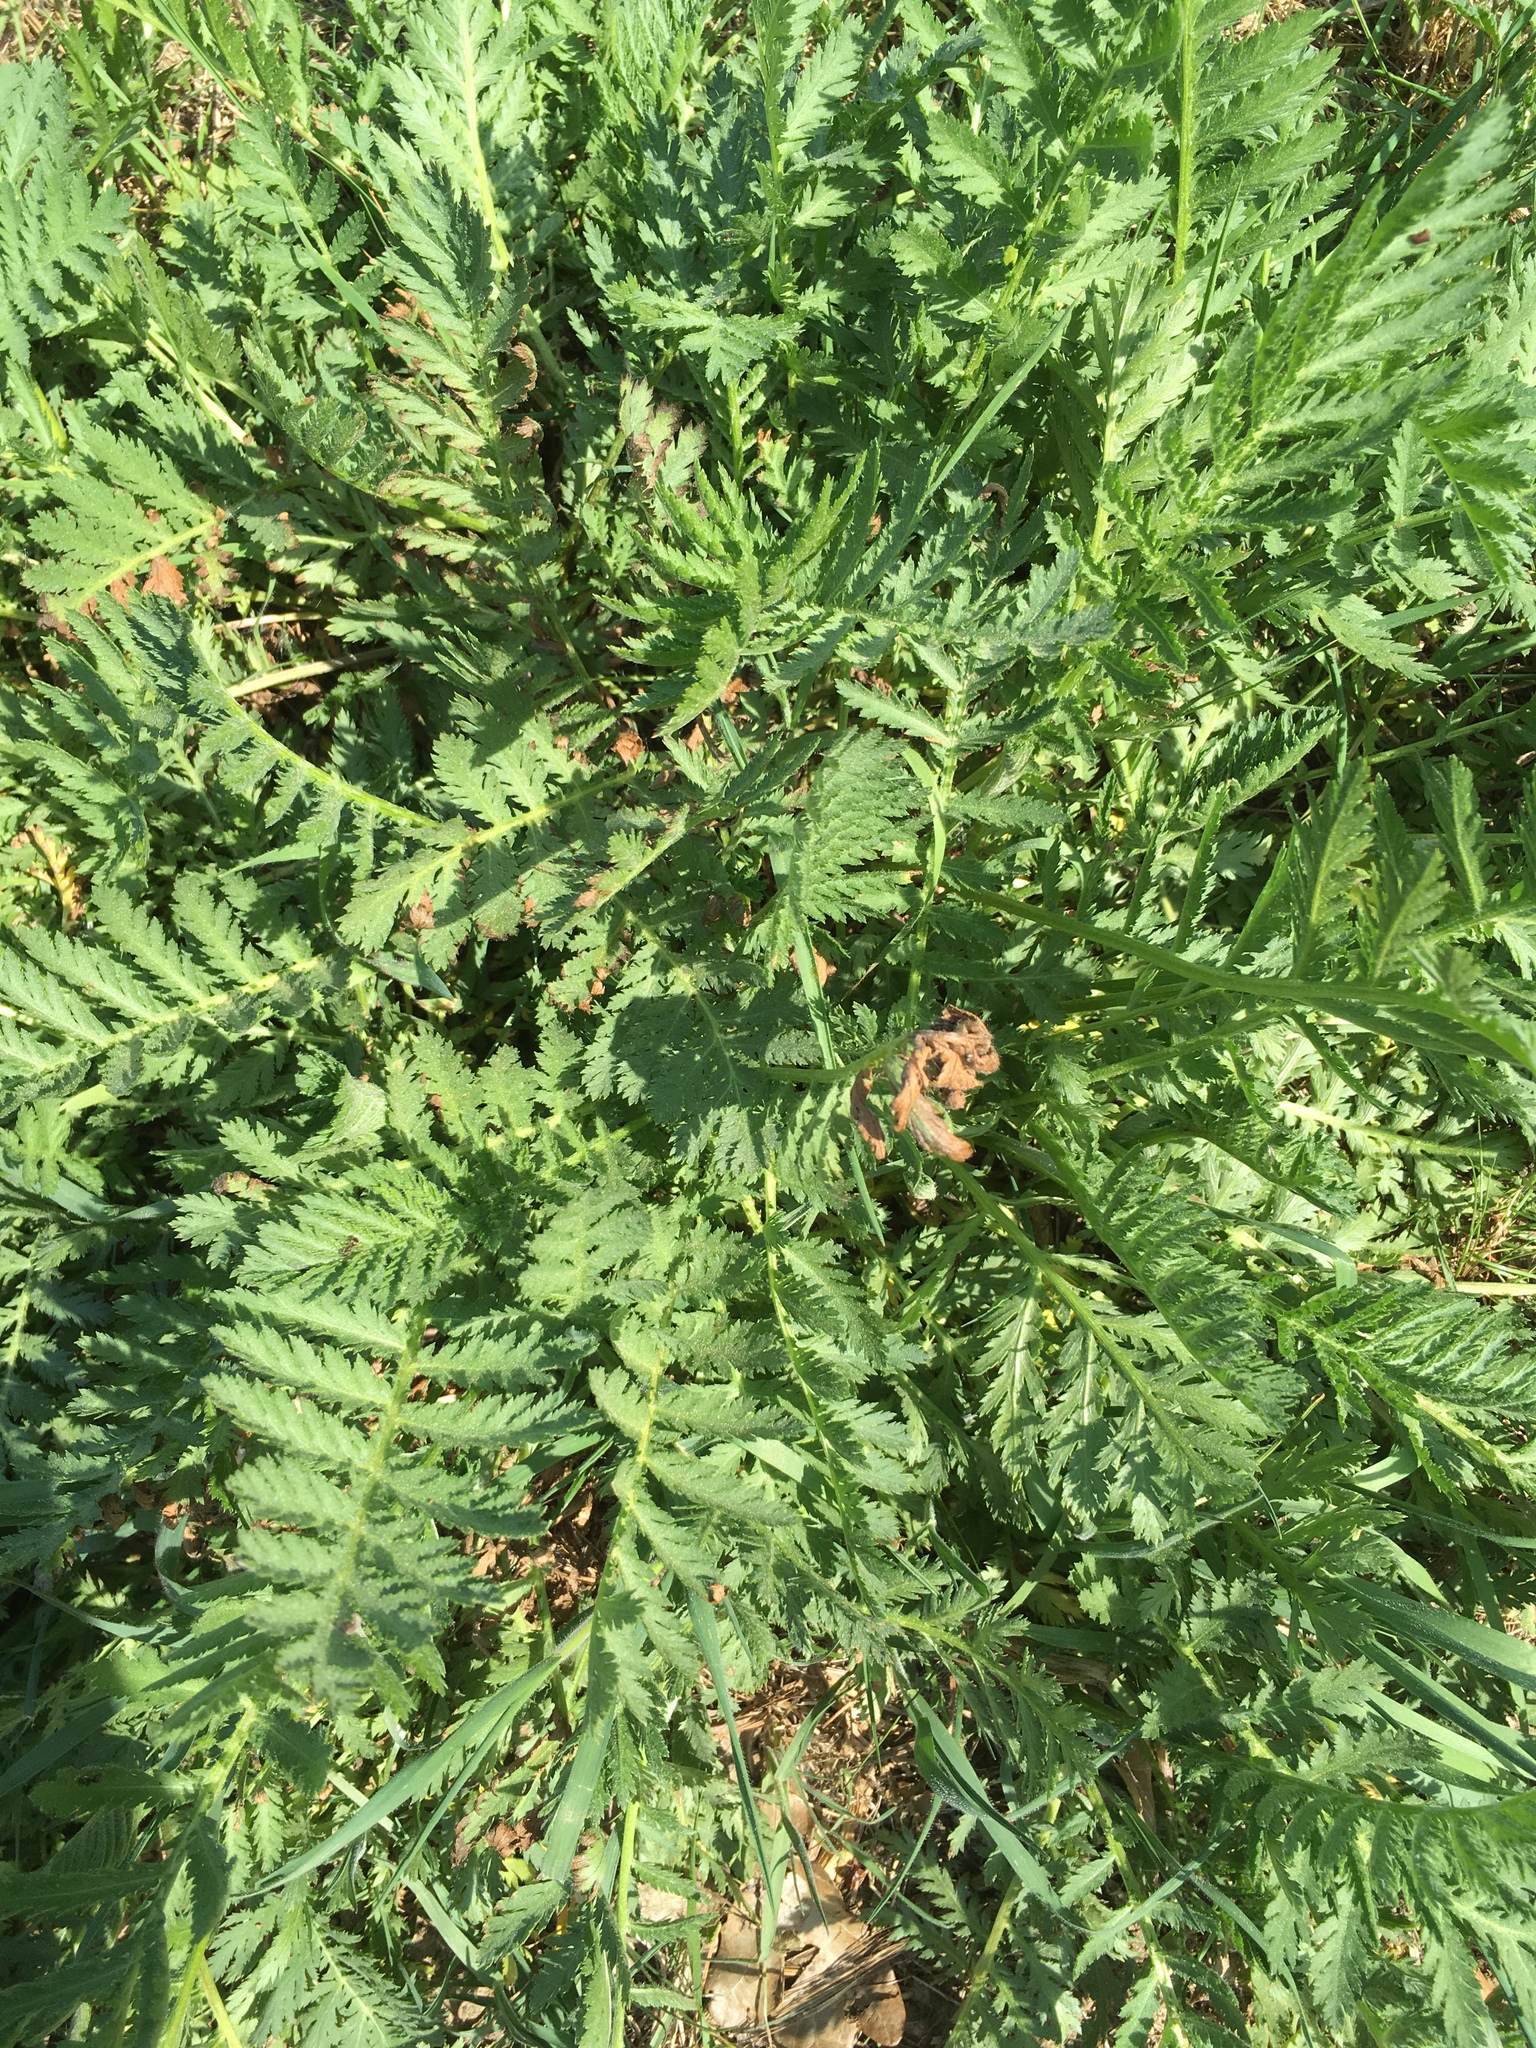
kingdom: Plantae
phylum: Tracheophyta
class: Magnoliopsida
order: Asterales
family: Asteraceae
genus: Tanacetum
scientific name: Tanacetum vulgare
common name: Common tansy
